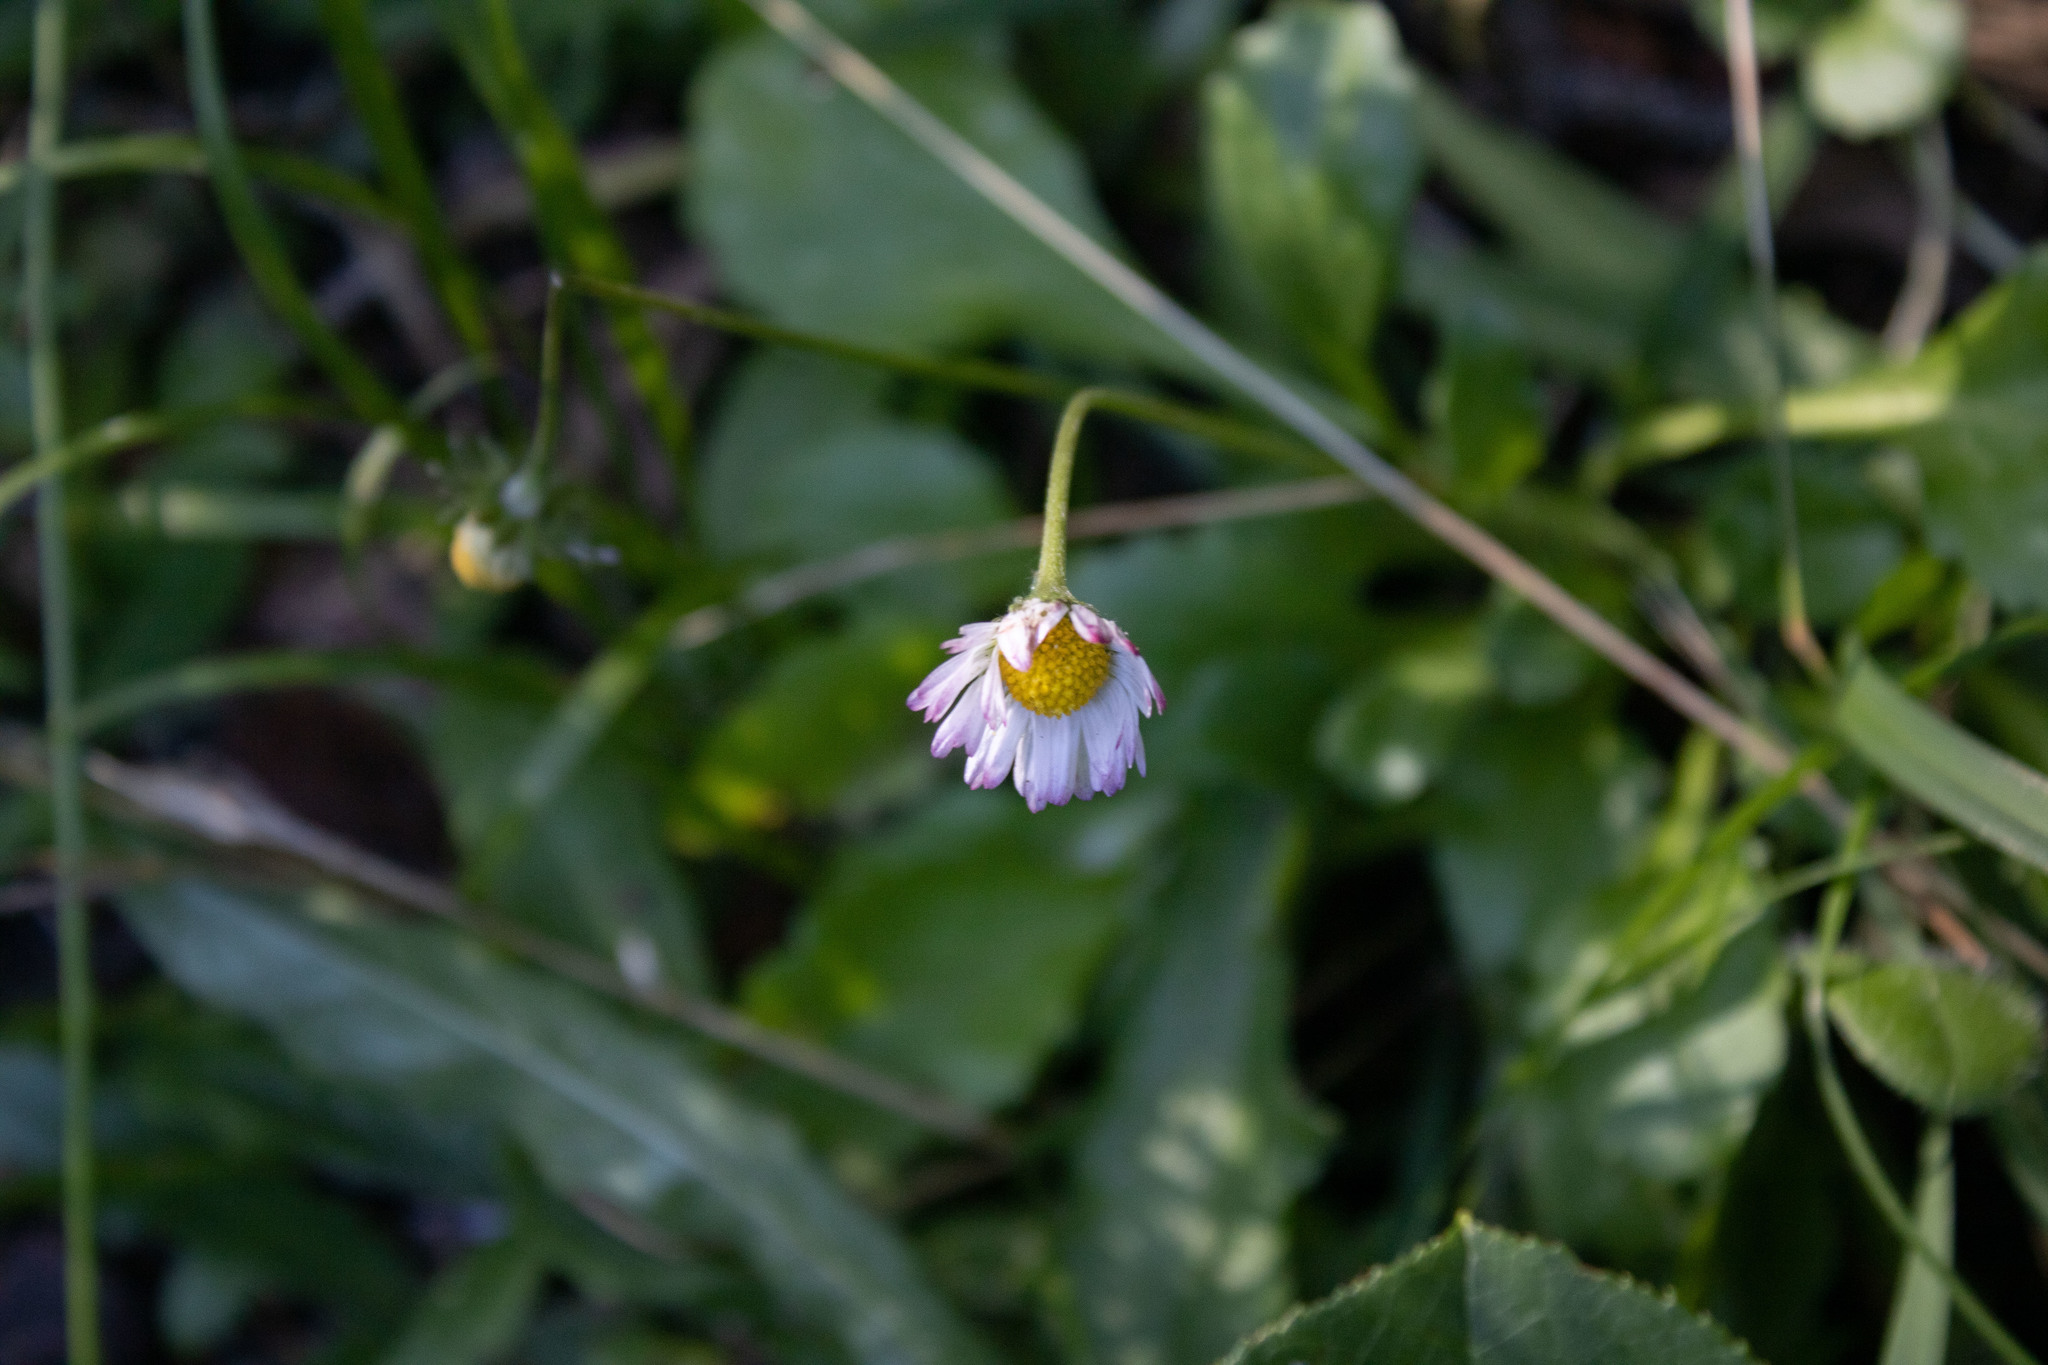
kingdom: Plantae
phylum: Tracheophyta
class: Magnoliopsida
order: Asterales
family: Asteraceae
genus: Bellis
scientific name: Bellis perennis
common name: Lawndaisy
